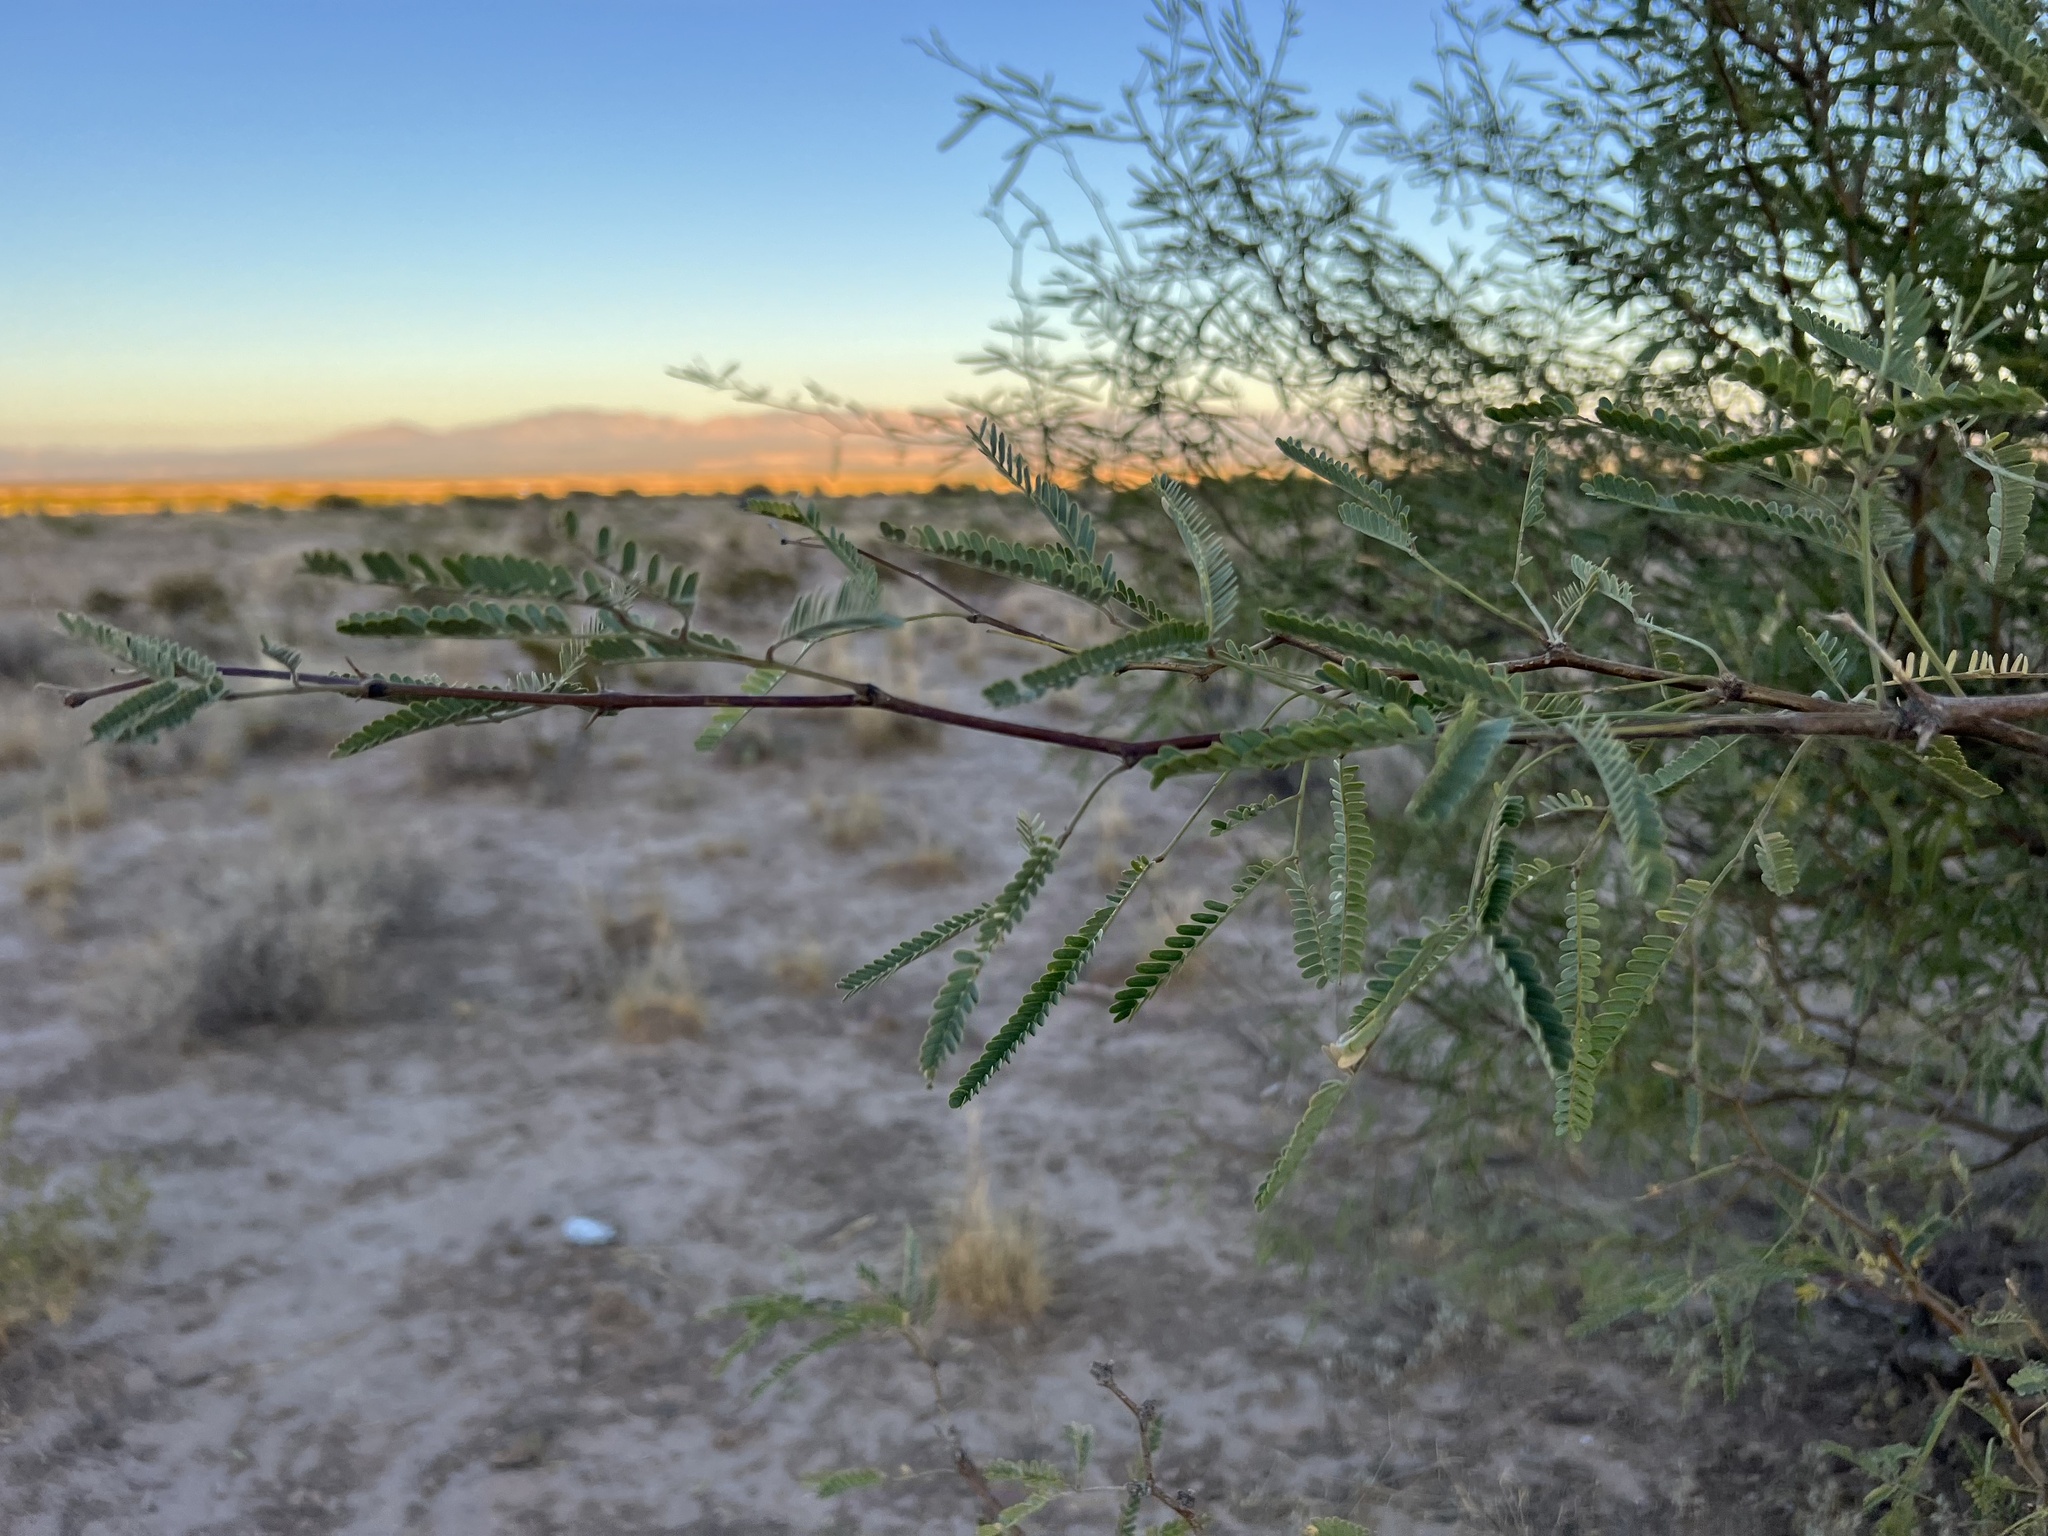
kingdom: Plantae
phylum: Tracheophyta
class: Magnoliopsida
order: Fabales
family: Fabaceae
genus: Prosopis
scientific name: Prosopis velutina
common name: Velvet mesquite
